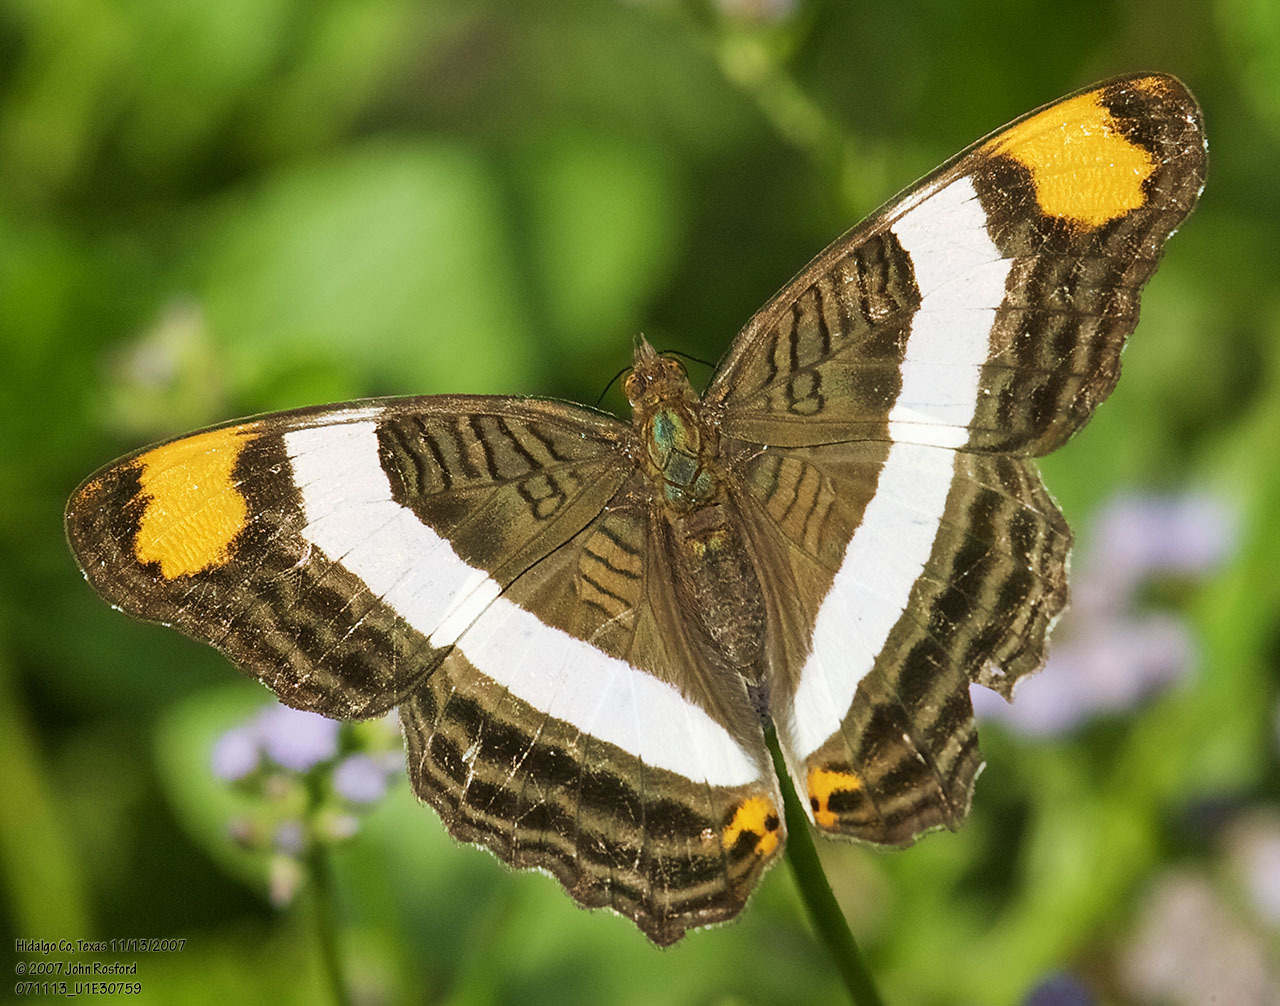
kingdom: Animalia
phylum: Arthropoda
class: Insecta
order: Lepidoptera
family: Nymphalidae
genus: Limenitis
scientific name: Limenitis fessonia
